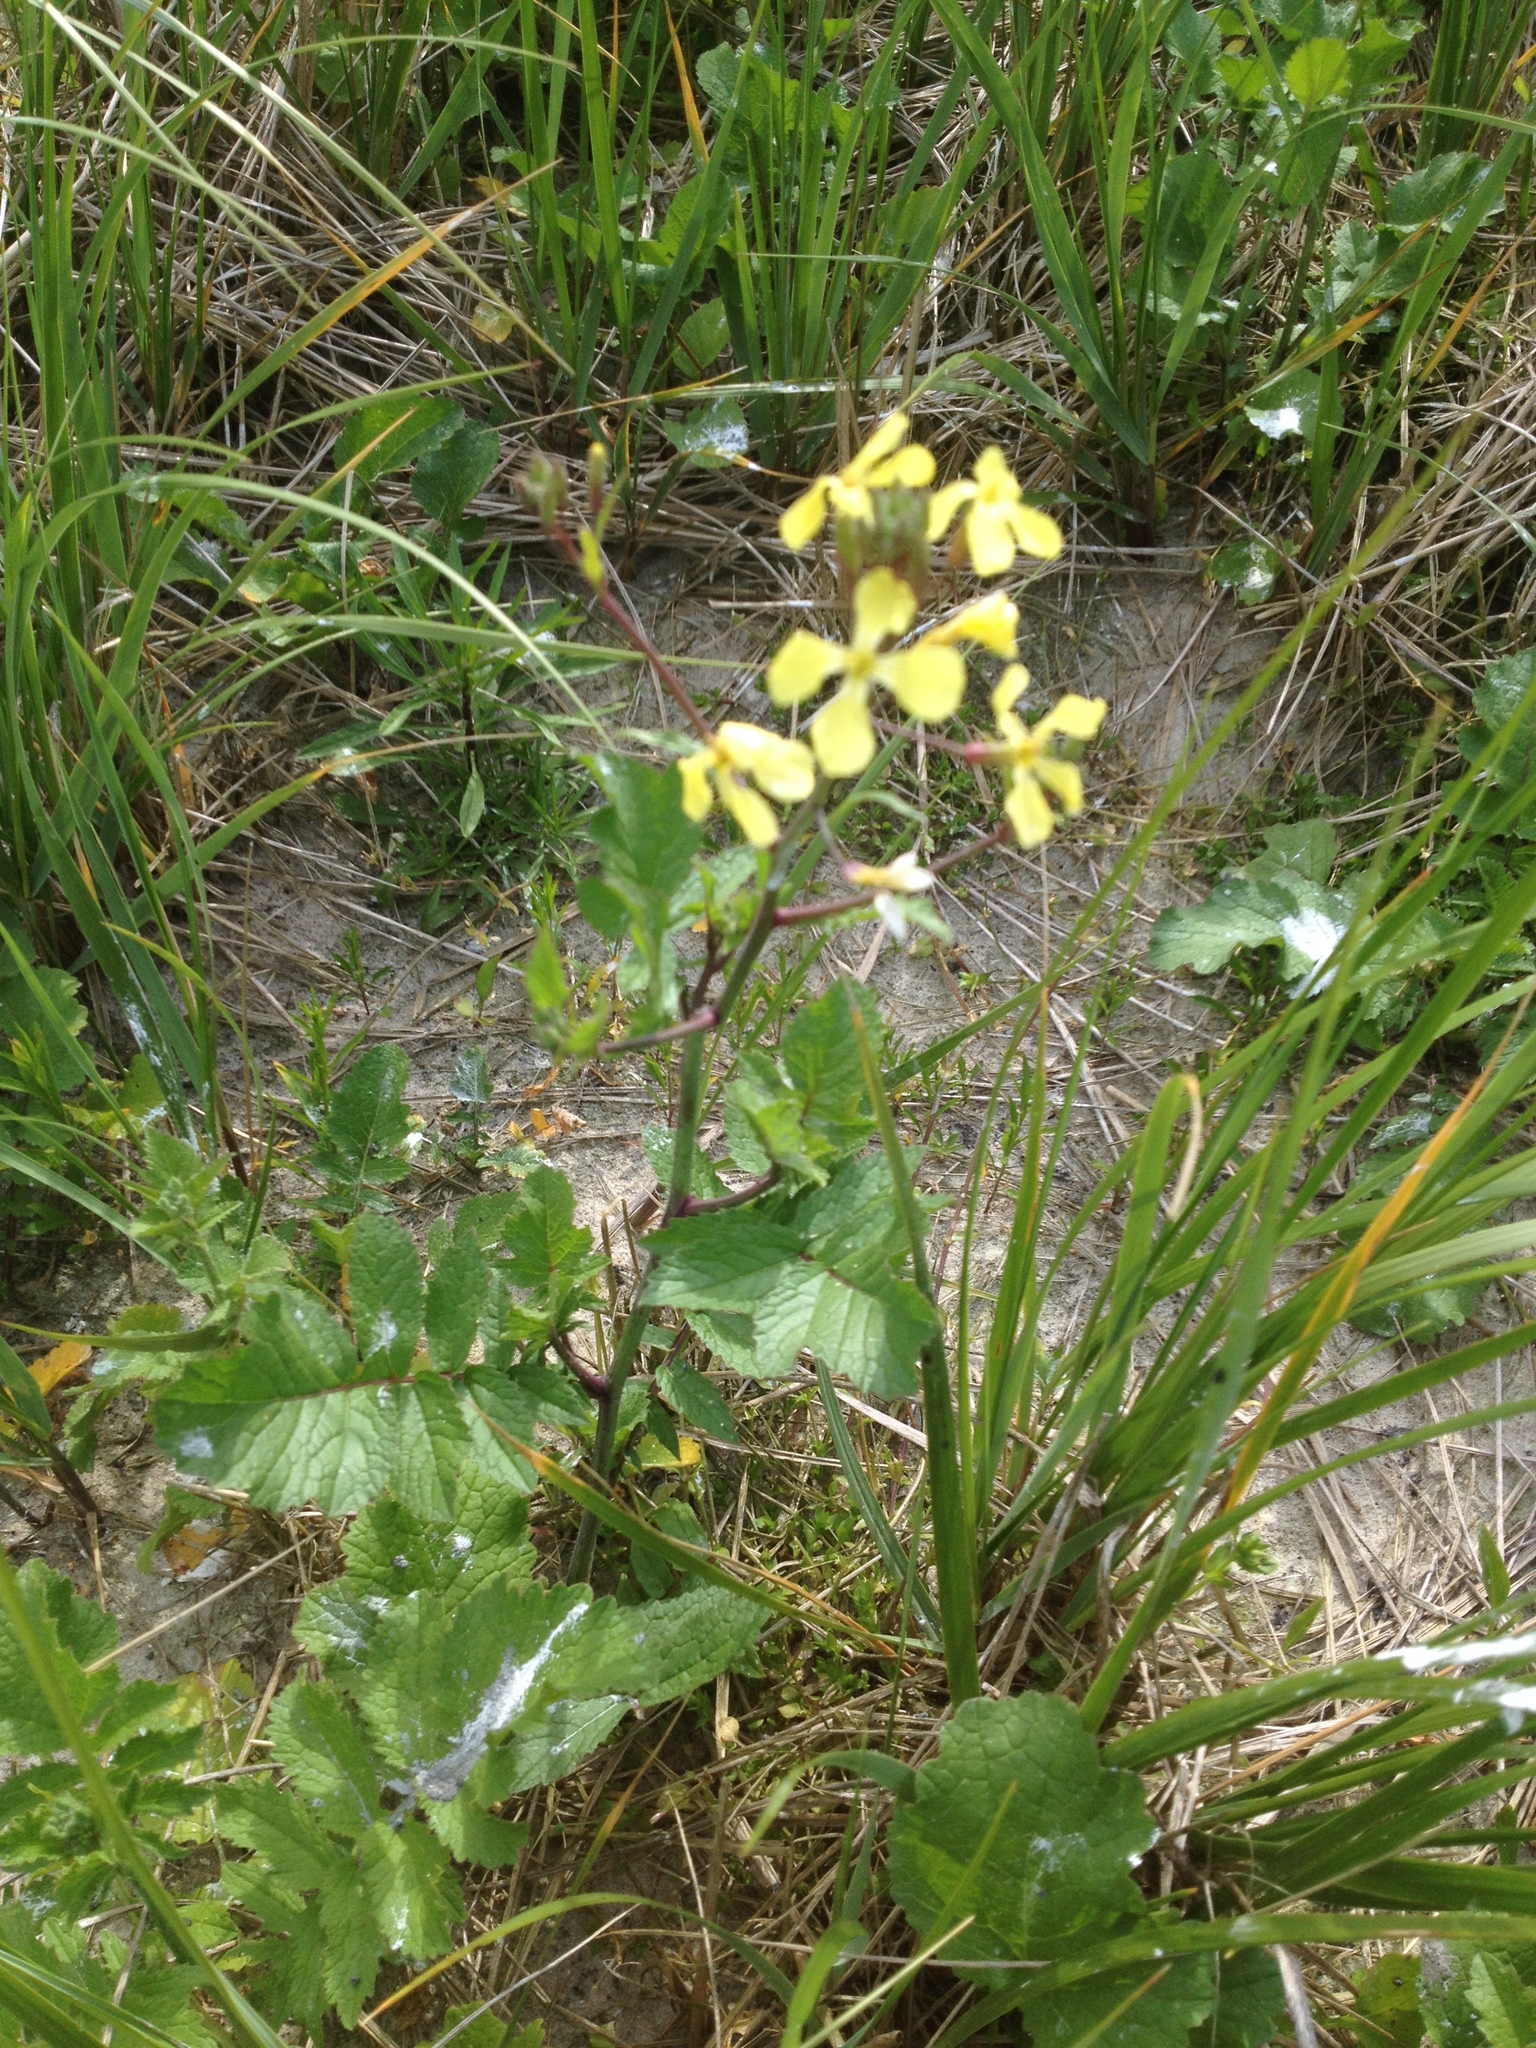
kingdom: Plantae
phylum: Tracheophyta
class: Magnoliopsida
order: Brassicales
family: Brassicaceae
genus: Raphanus
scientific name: Raphanus raphanistrum
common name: Wild radish
